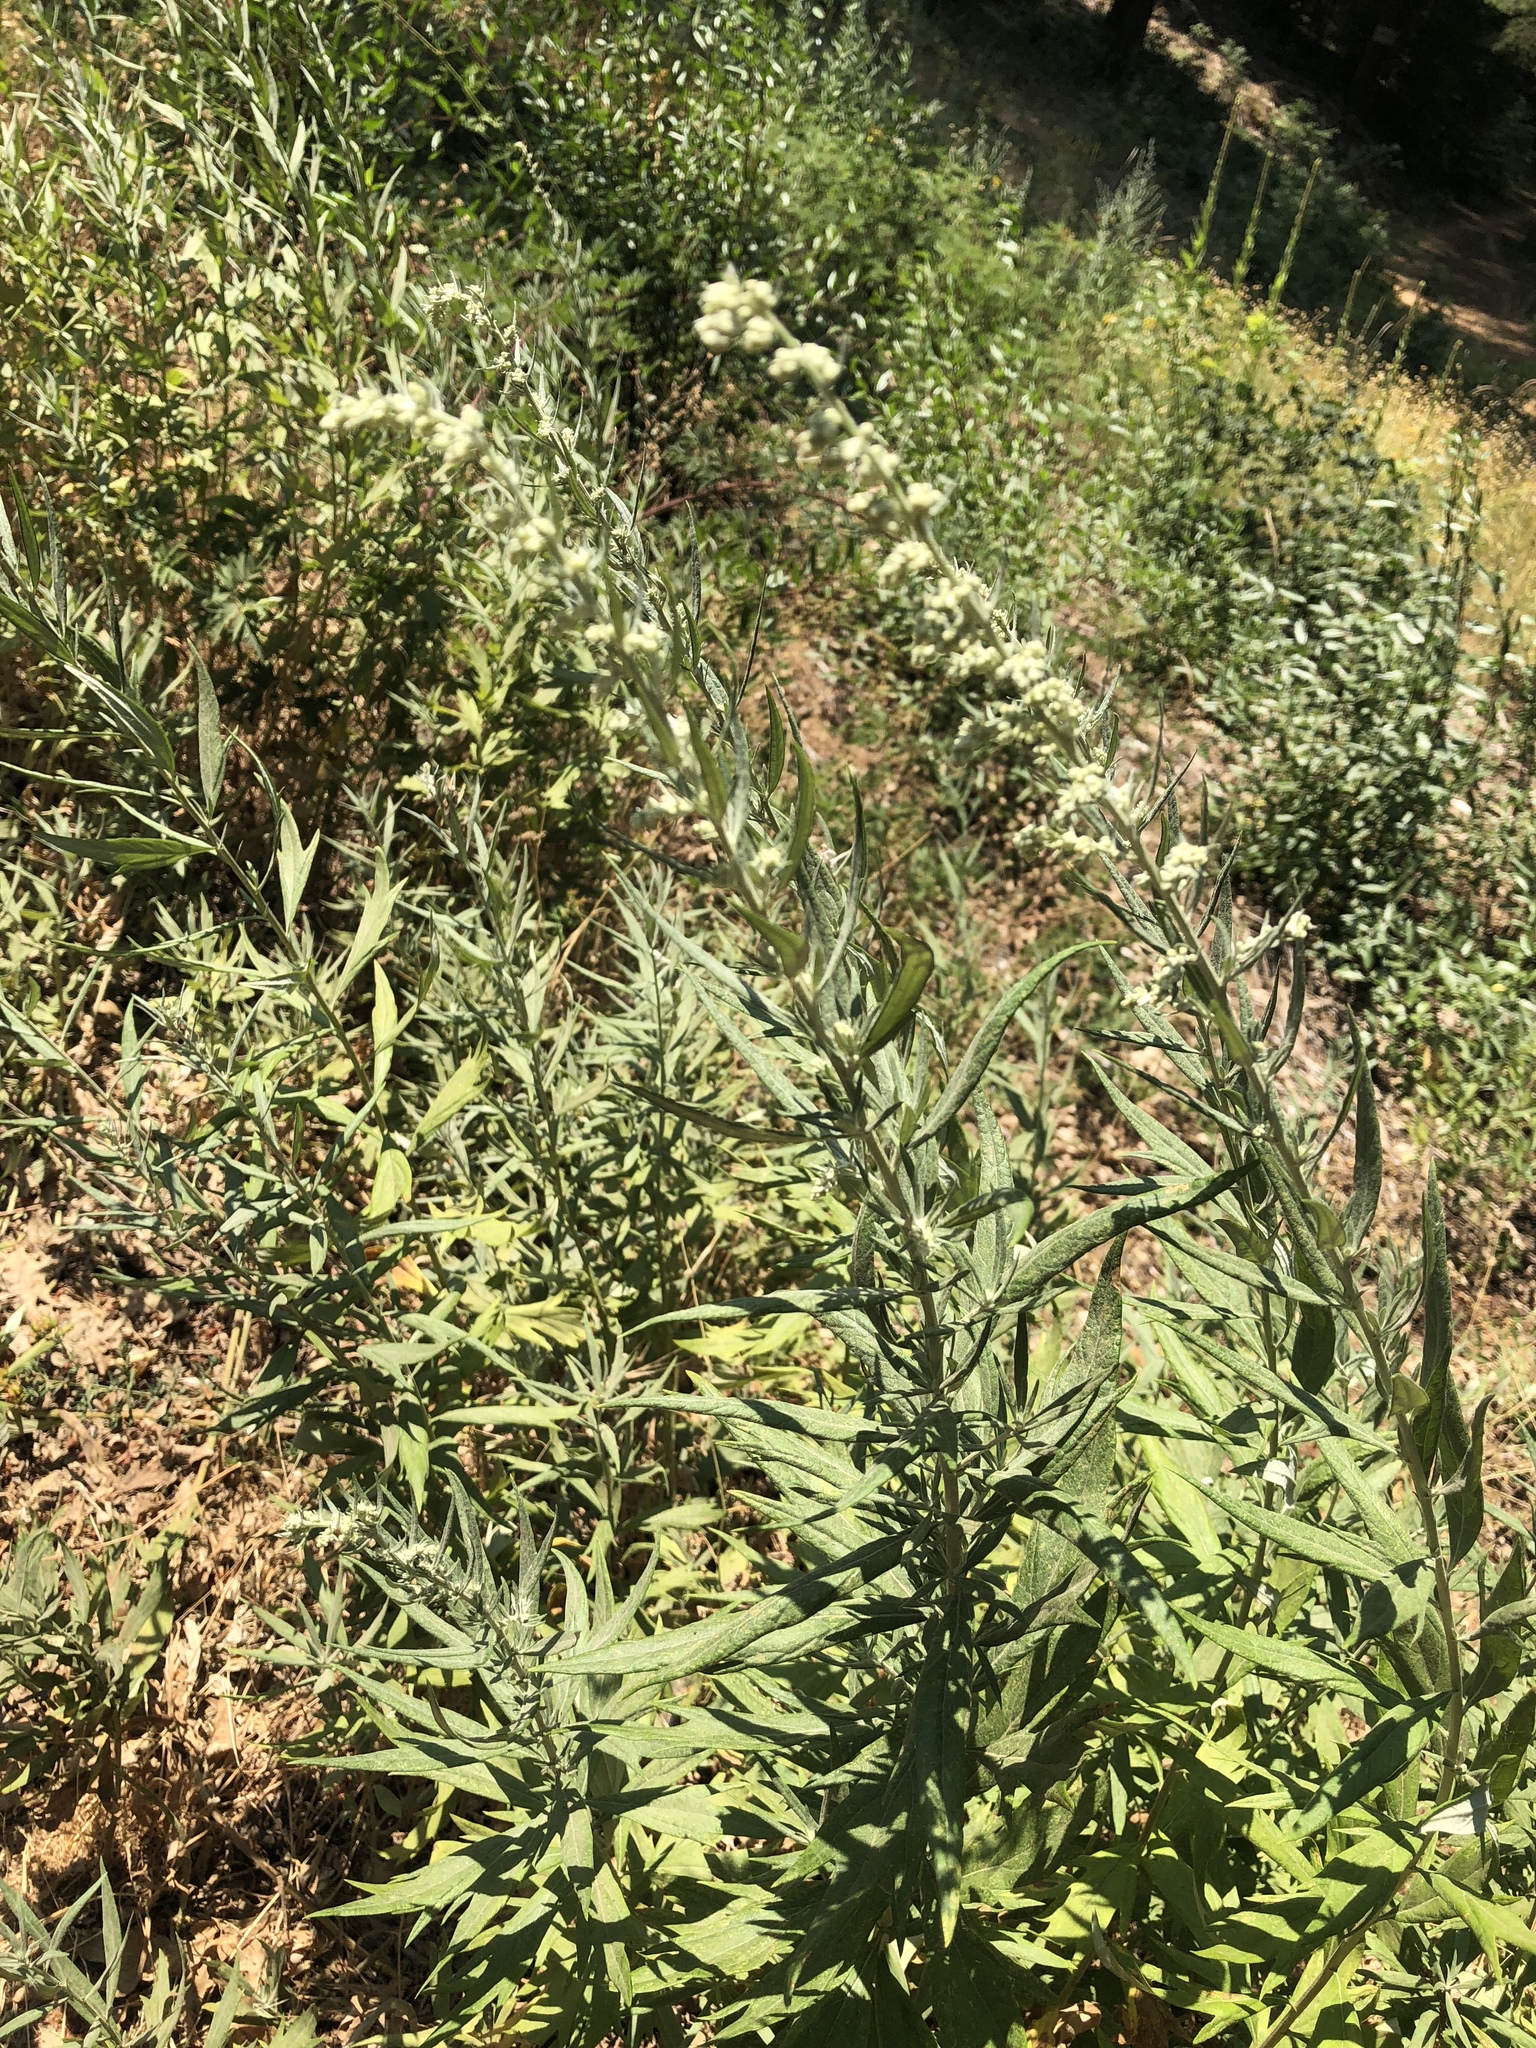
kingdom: Plantae
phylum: Tracheophyta
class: Magnoliopsida
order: Asterales
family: Asteraceae
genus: Artemisia
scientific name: Artemisia douglasiana
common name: Northwest mugwort
